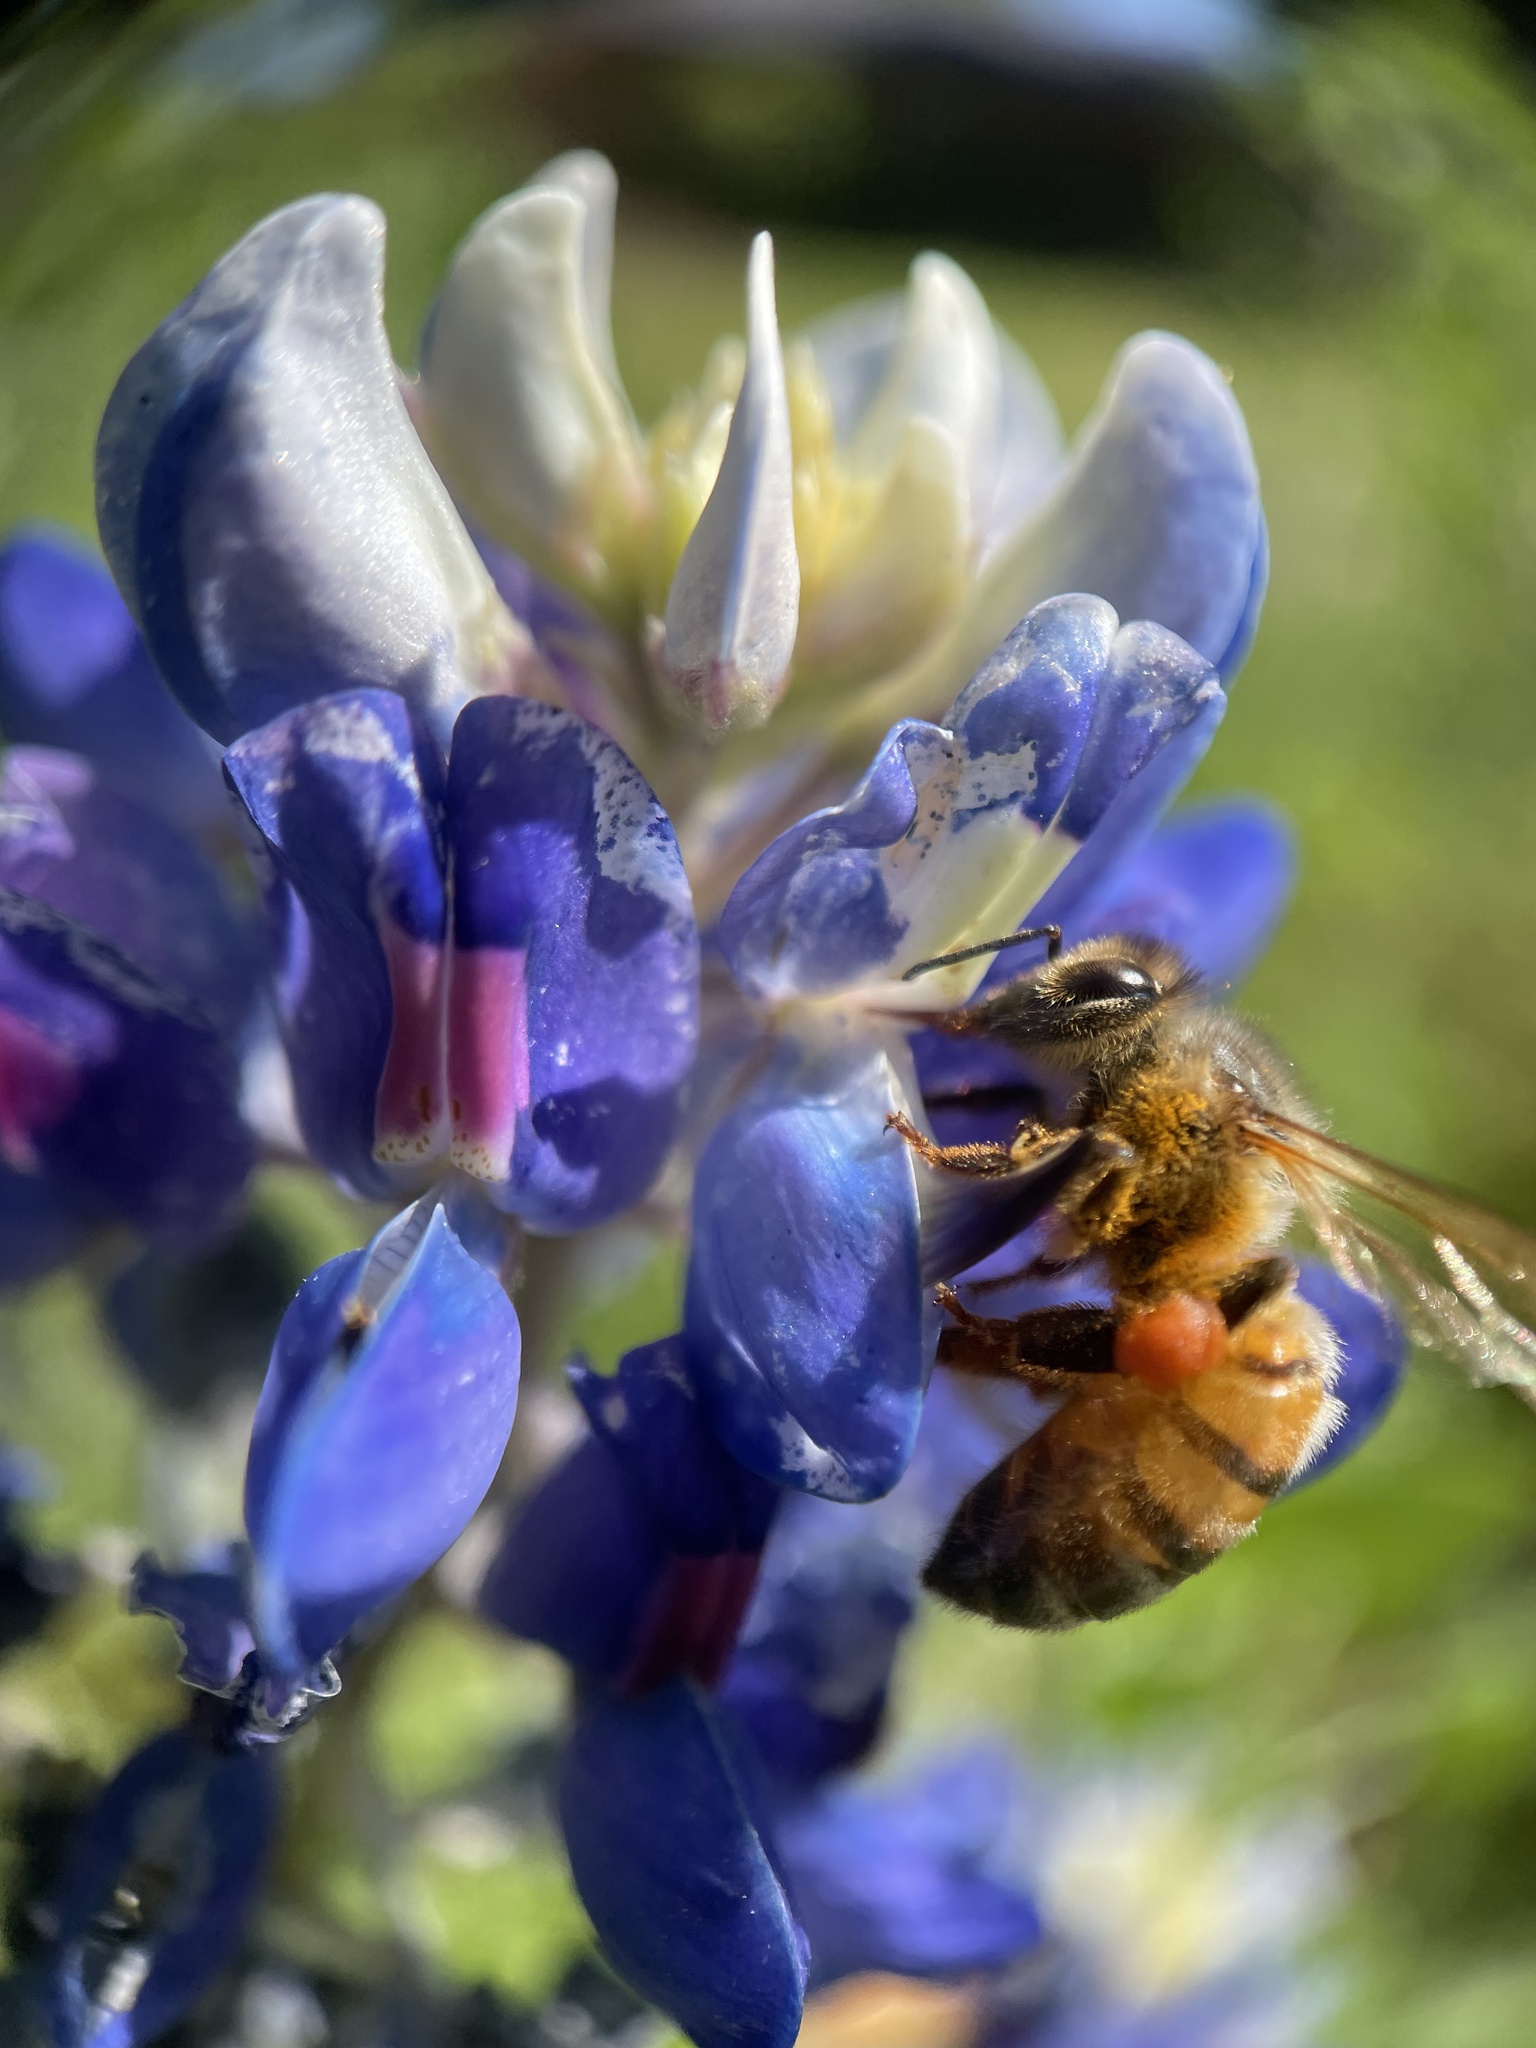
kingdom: Animalia
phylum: Arthropoda
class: Insecta
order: Hymenoptera
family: Apidae
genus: Apis
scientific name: Apis mellifera
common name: Honey bee
